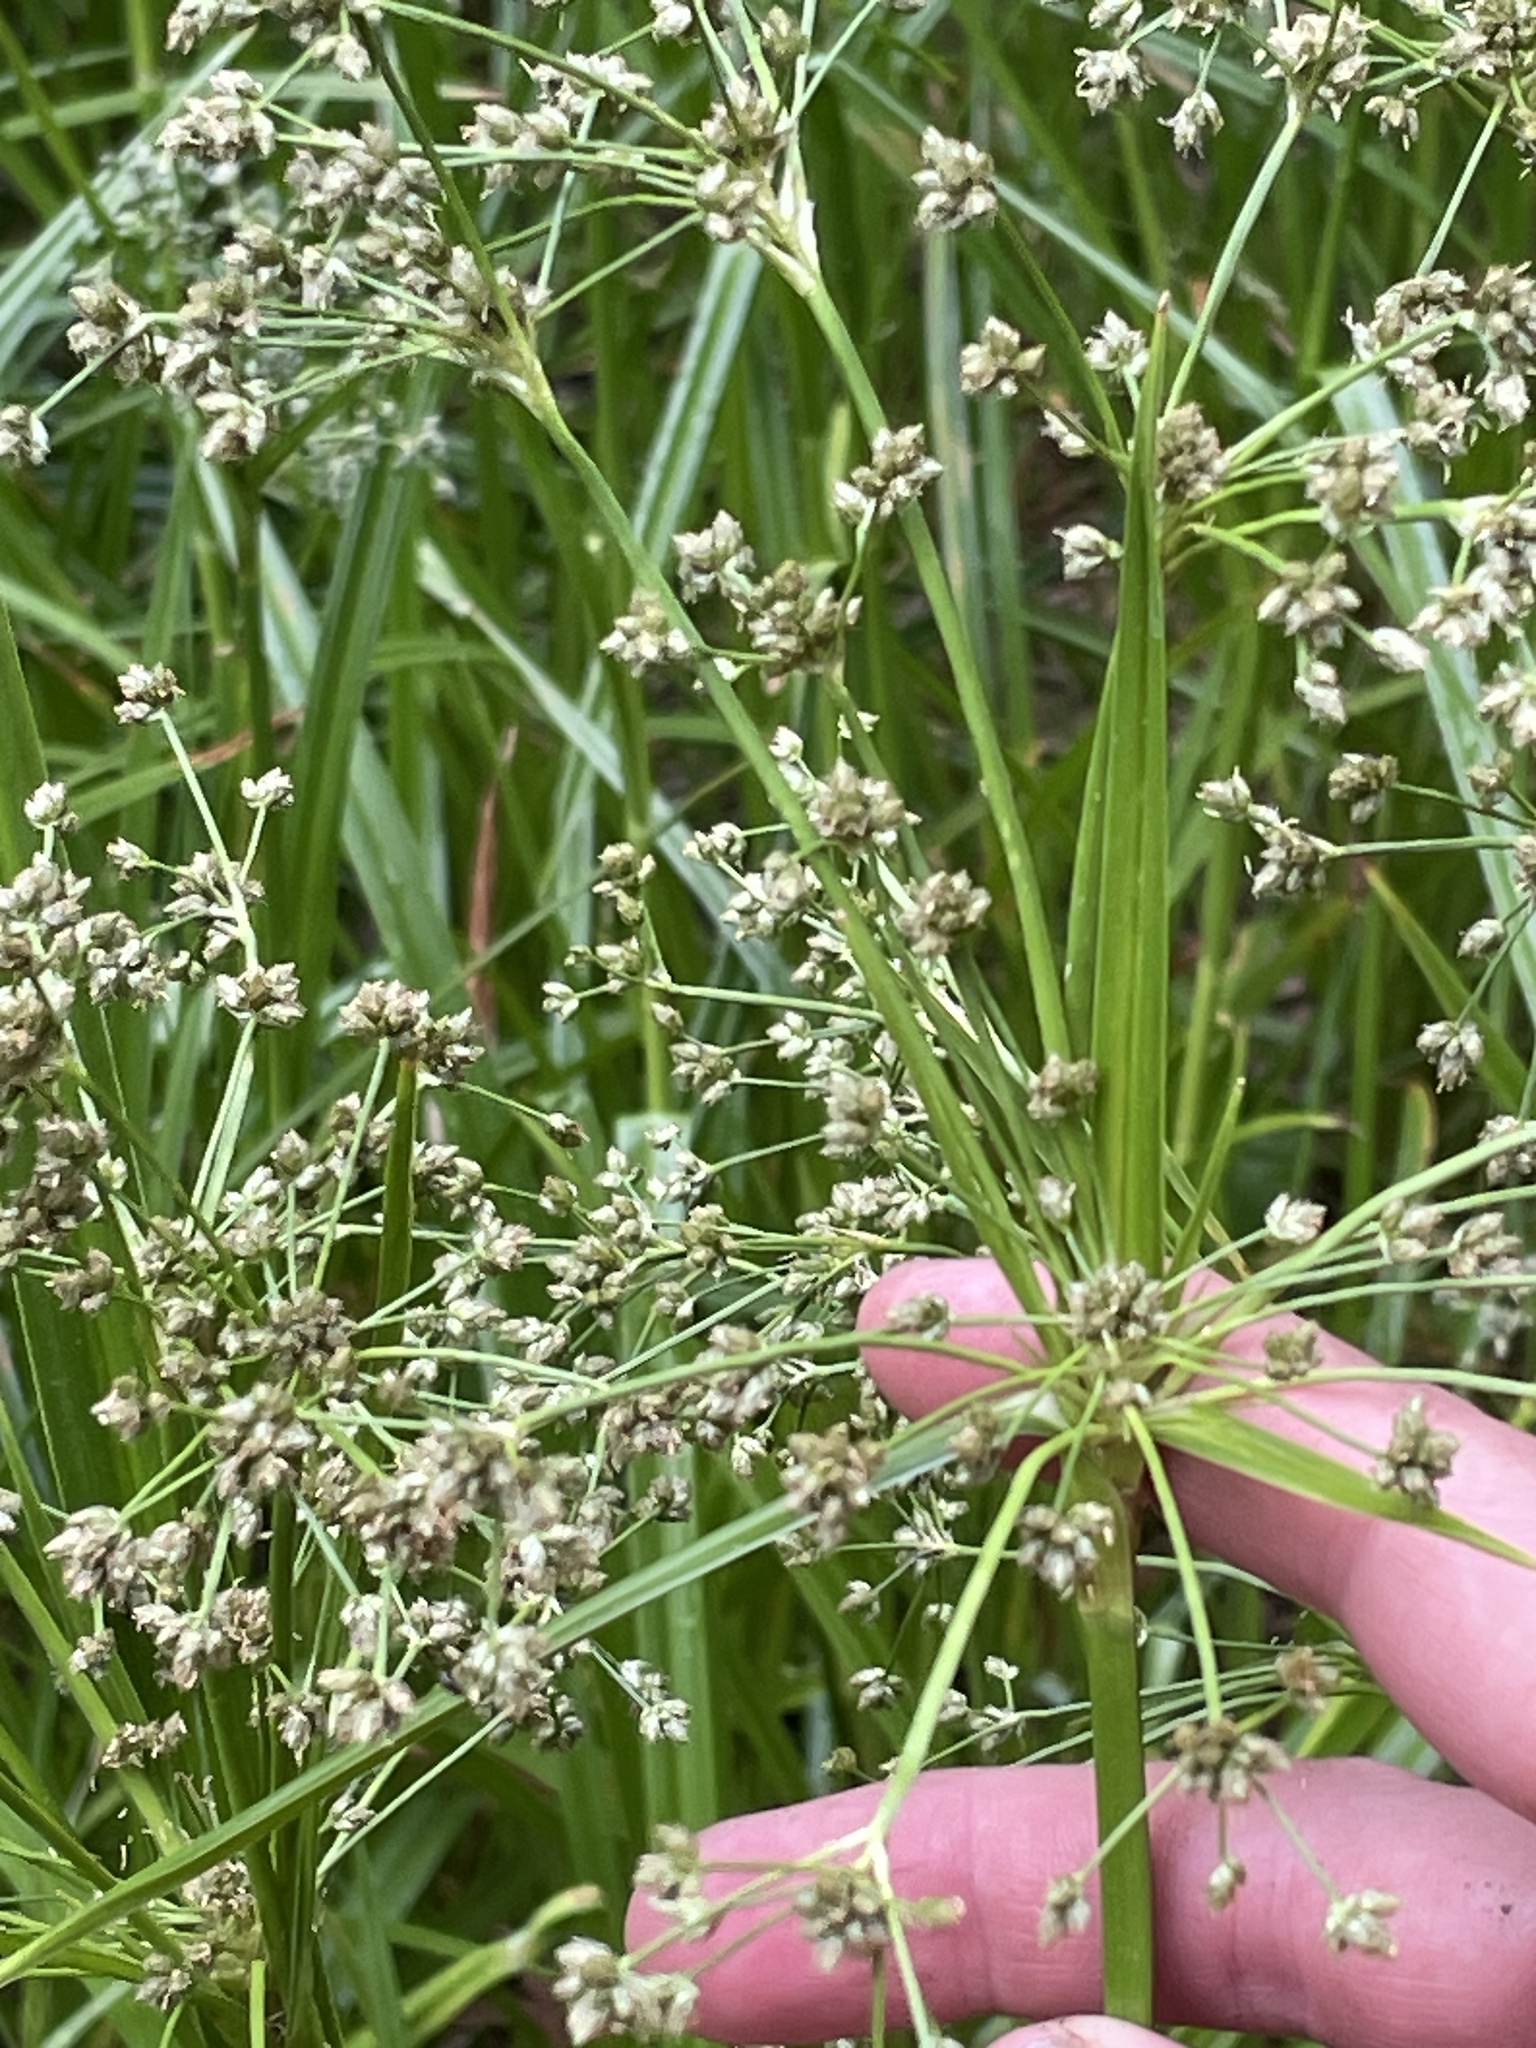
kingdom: Plantae
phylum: Tracheophyta
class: Liliopsida
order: Poales
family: Cyperaceae
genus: Scirpus
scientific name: Scirpus microcarpus
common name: Panicled bulrush
